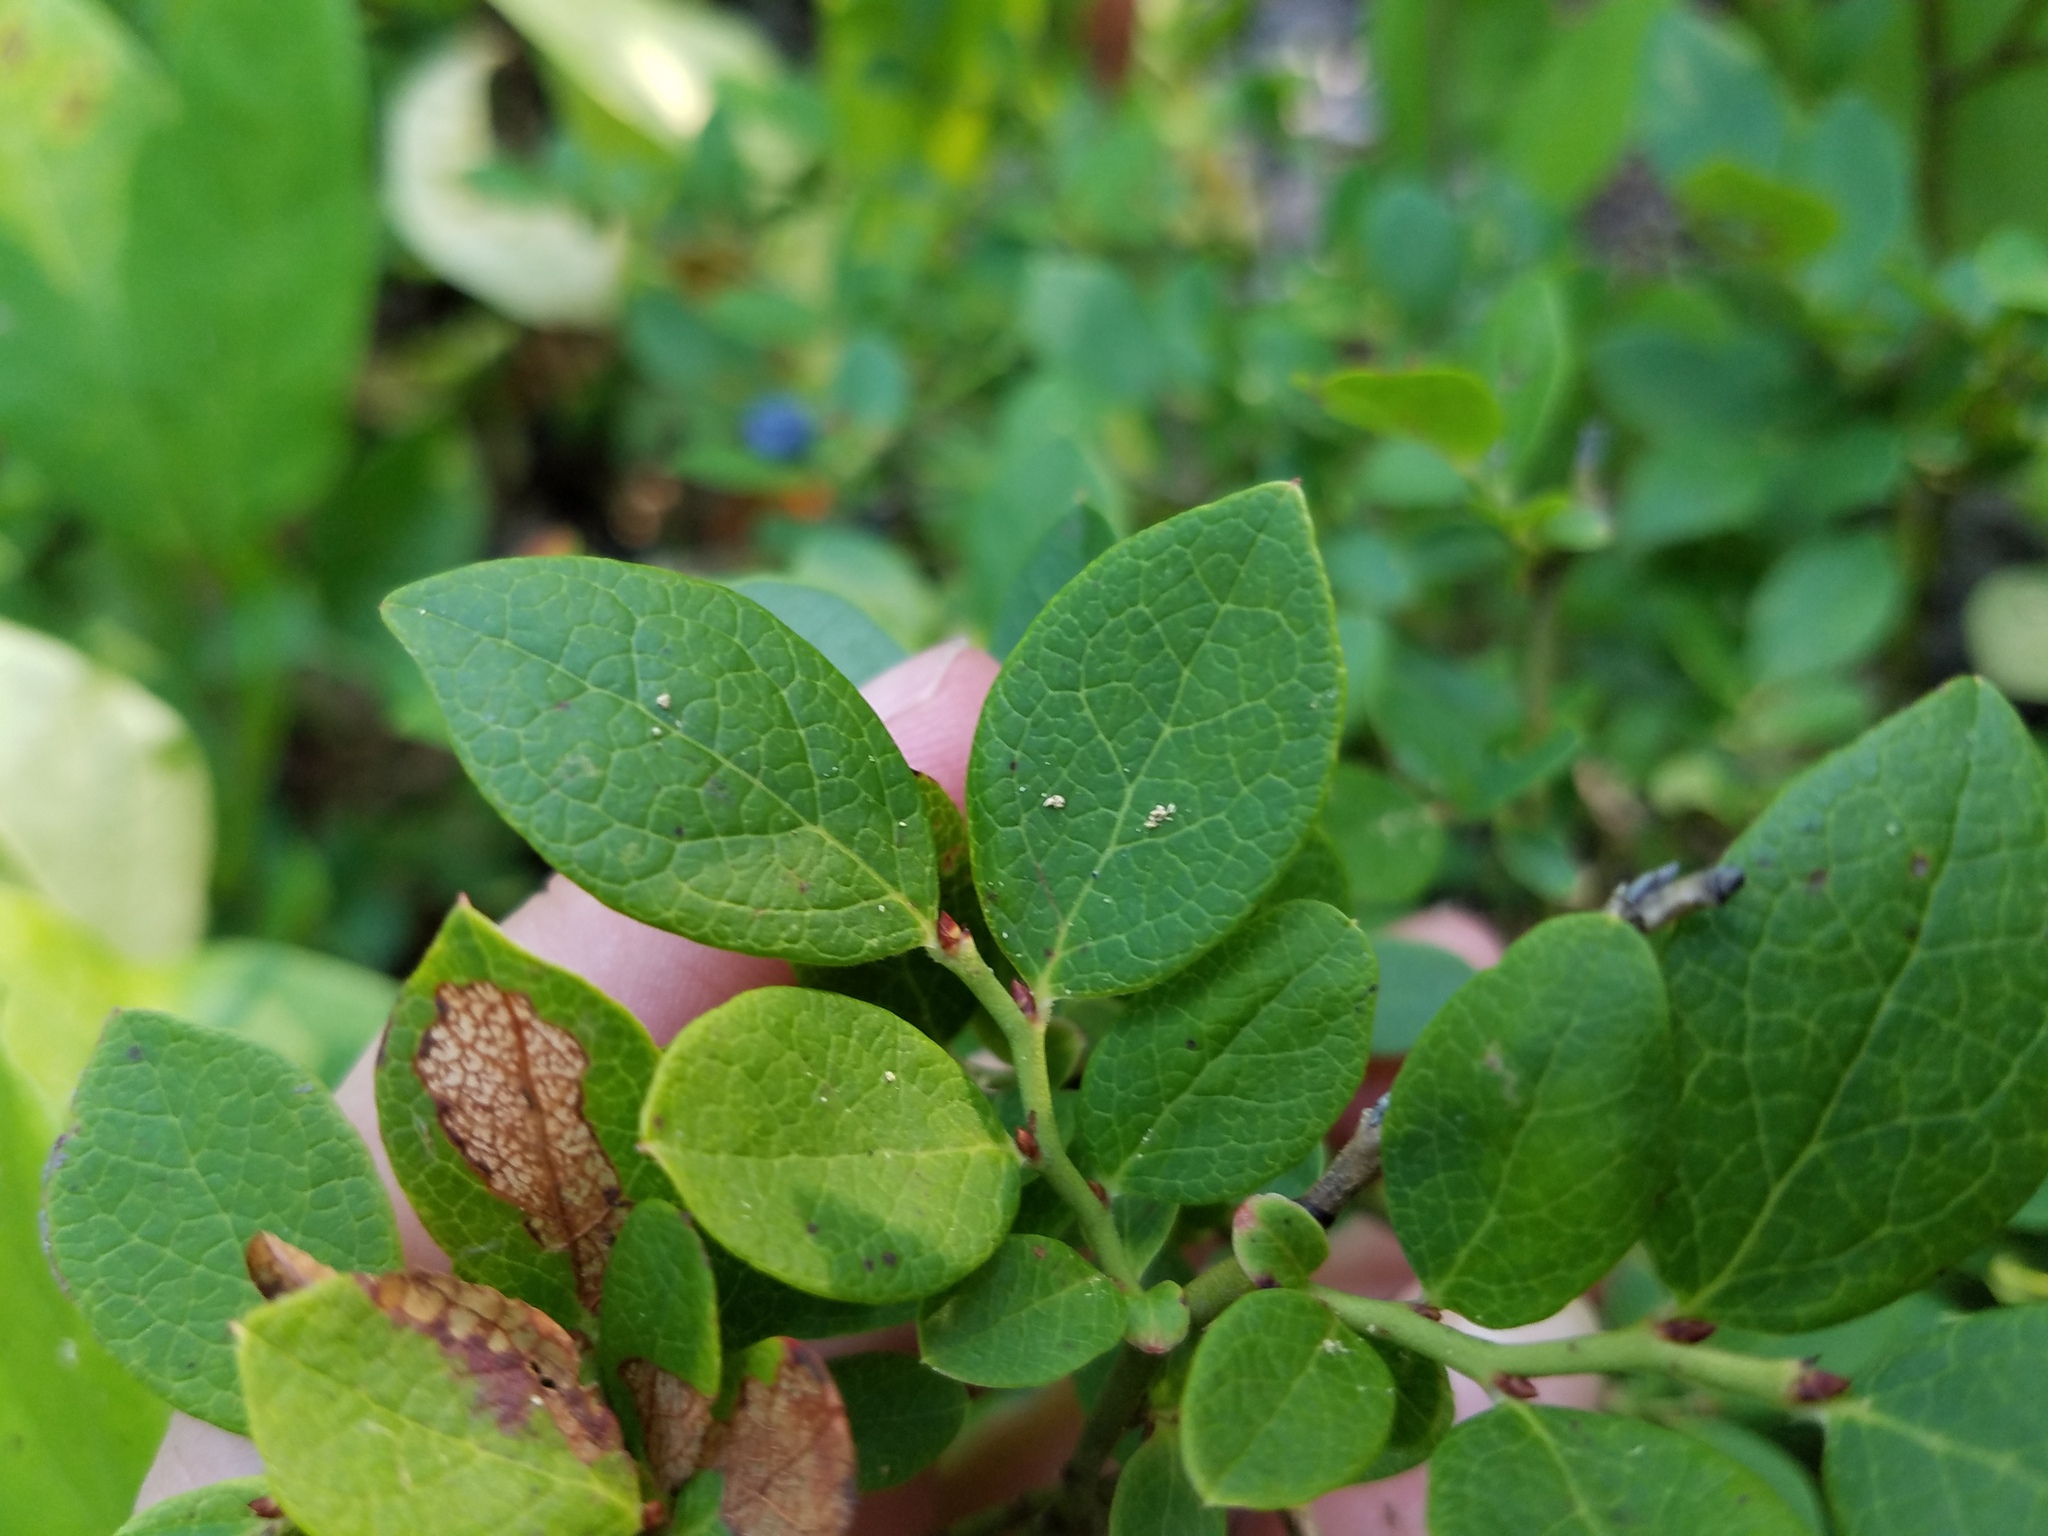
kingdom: Plantae
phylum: Tracheophyta
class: Magnoliopsida
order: Ericales
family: Ericaceae
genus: Vaccinium
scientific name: Vaccinium pallidum
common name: Blue ridge blueberry
